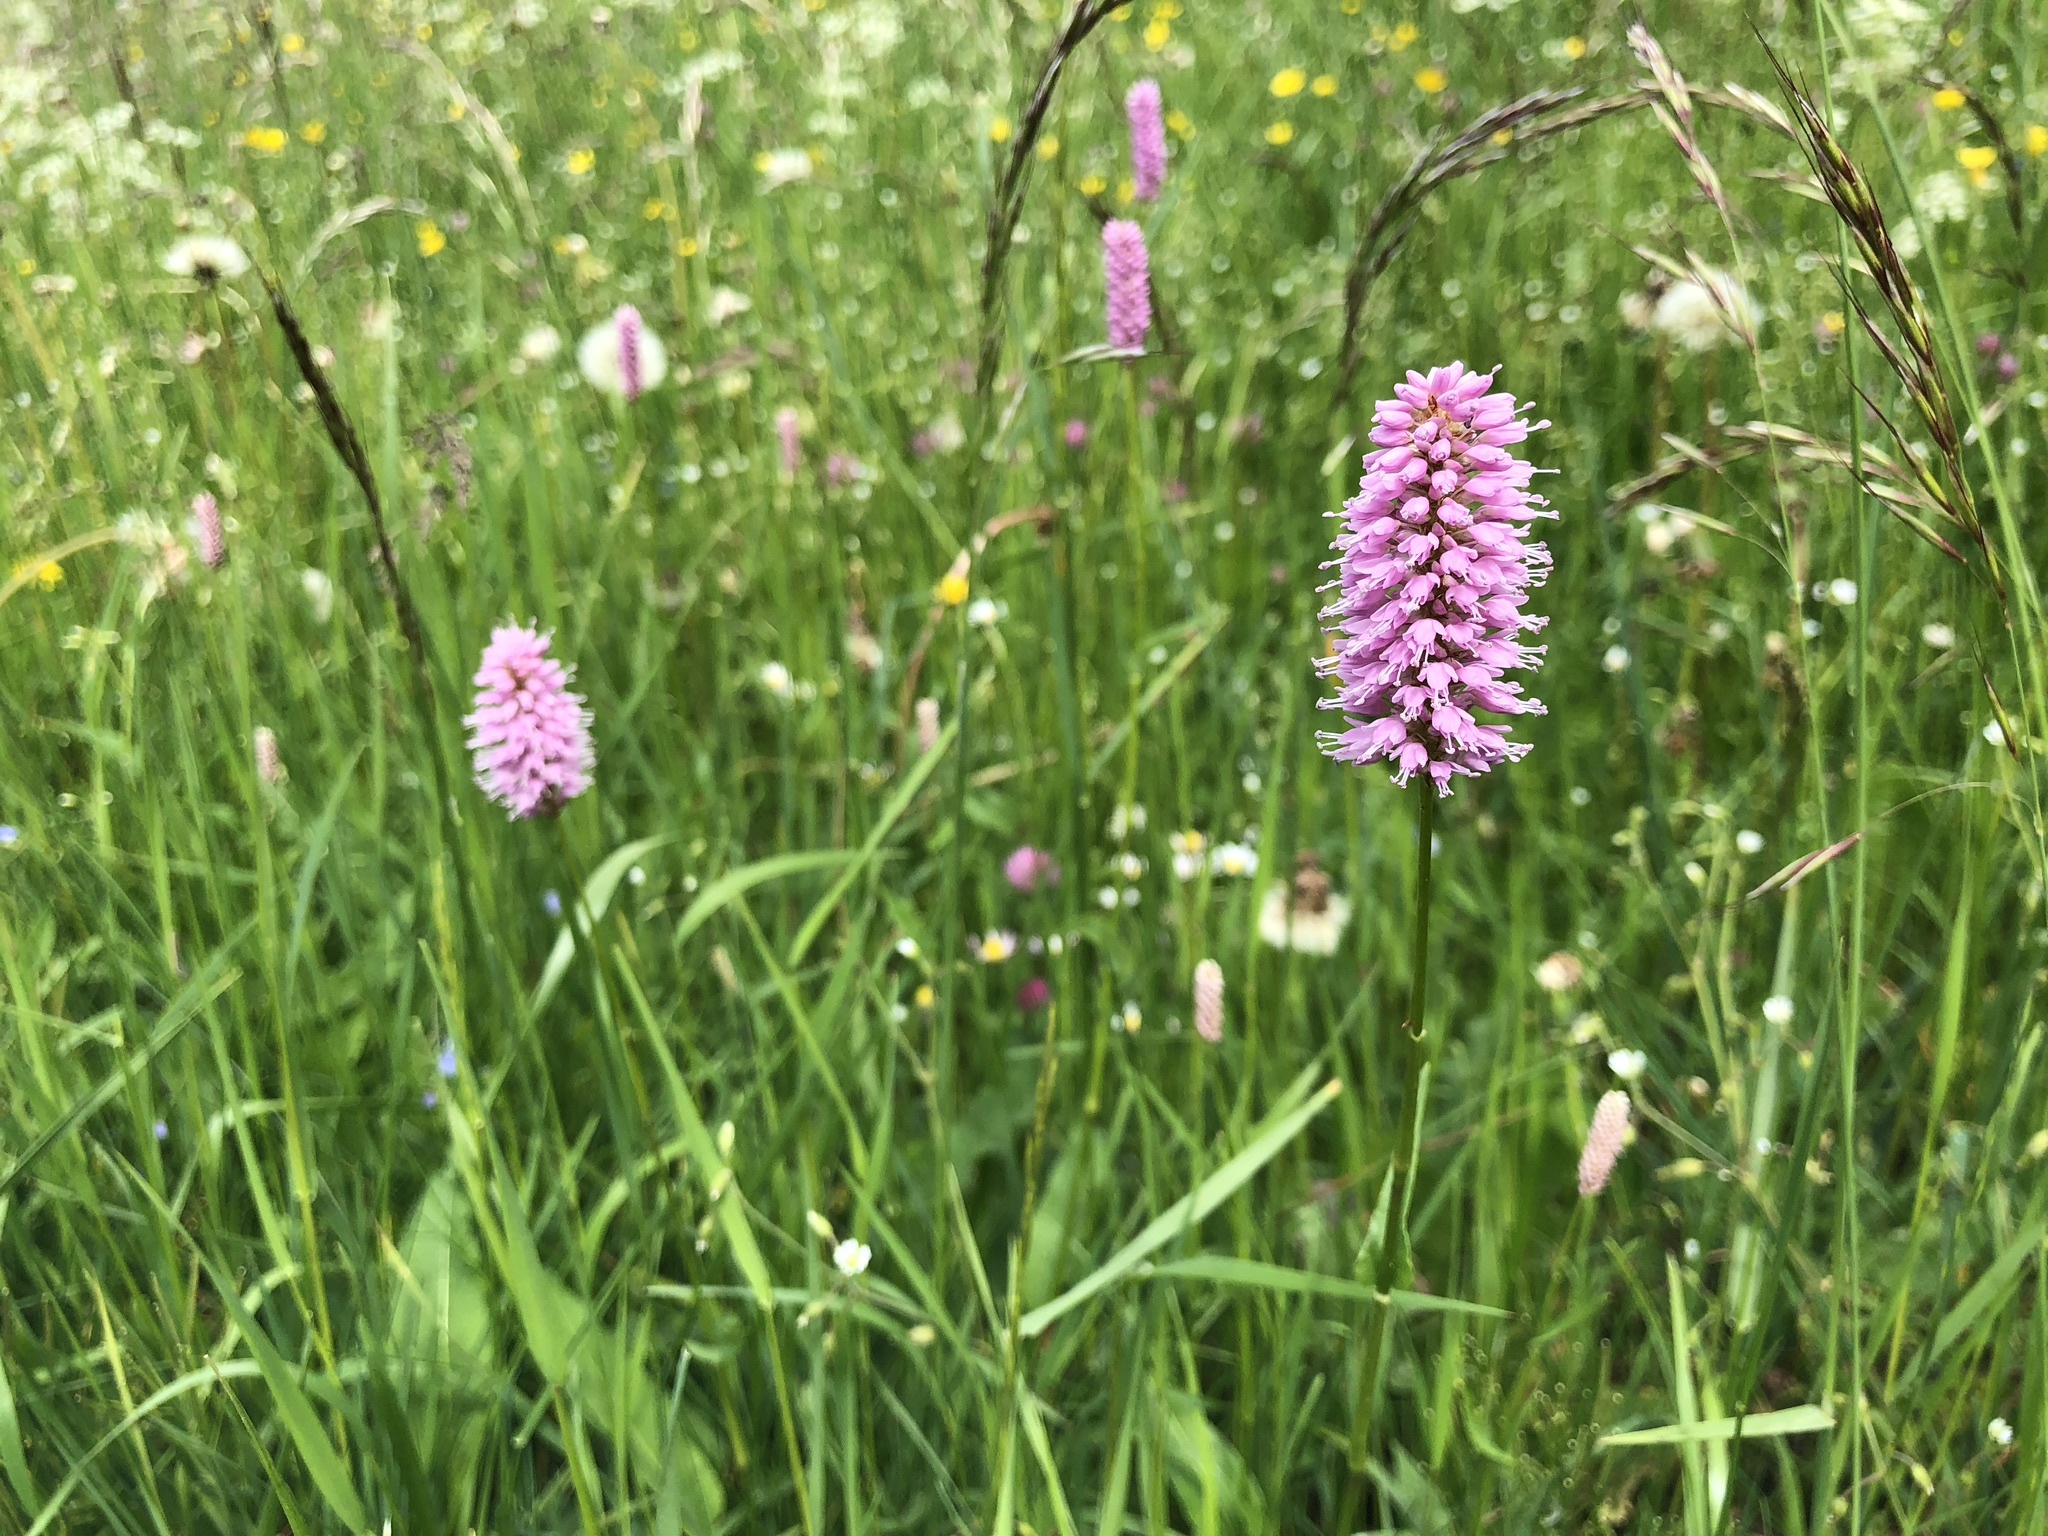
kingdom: Plantae
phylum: Tracheophyta
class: Magnoliopsida
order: Caryophyllales
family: Polygonaceae
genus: Bistorta
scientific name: Bistorta officinalis
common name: Common bistort
